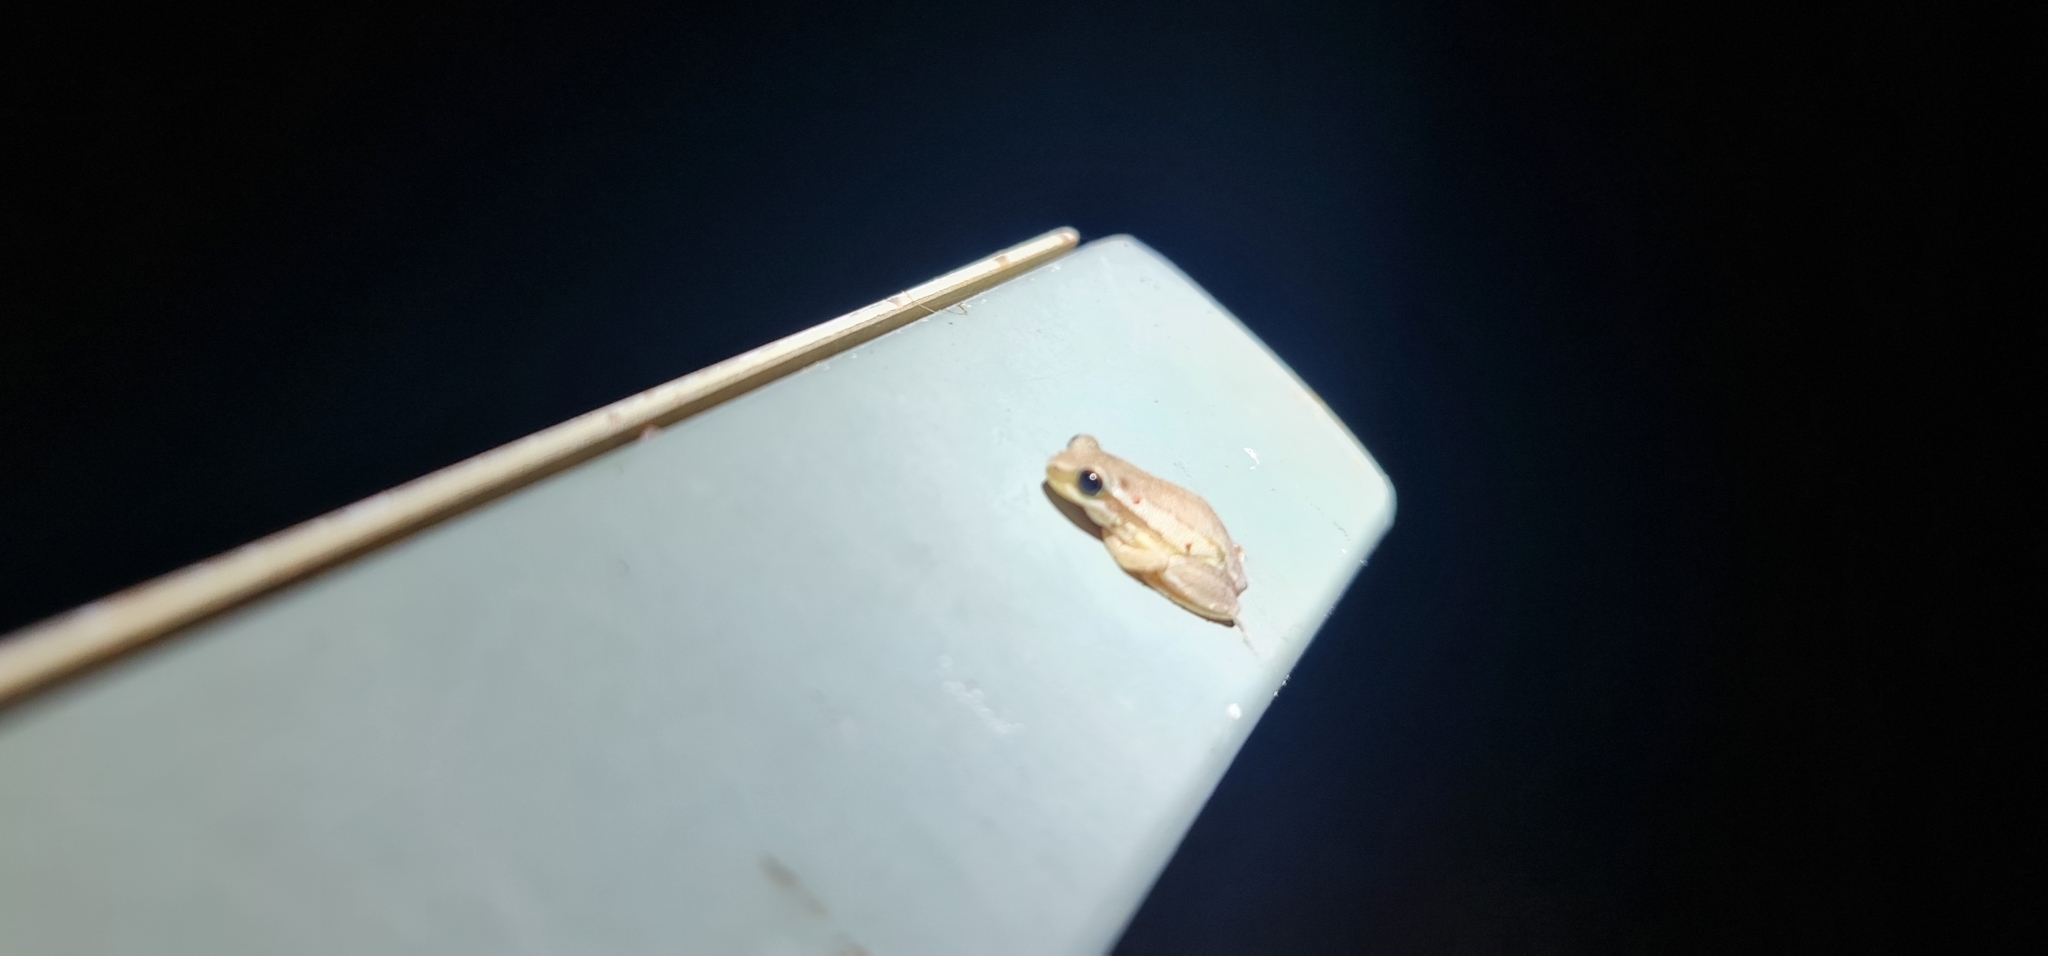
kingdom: Animalia
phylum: Chordata
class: Amphibia
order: Anura
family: Pelodryadidae
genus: Litoria
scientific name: Litoria rubella
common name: Desert tree frog
